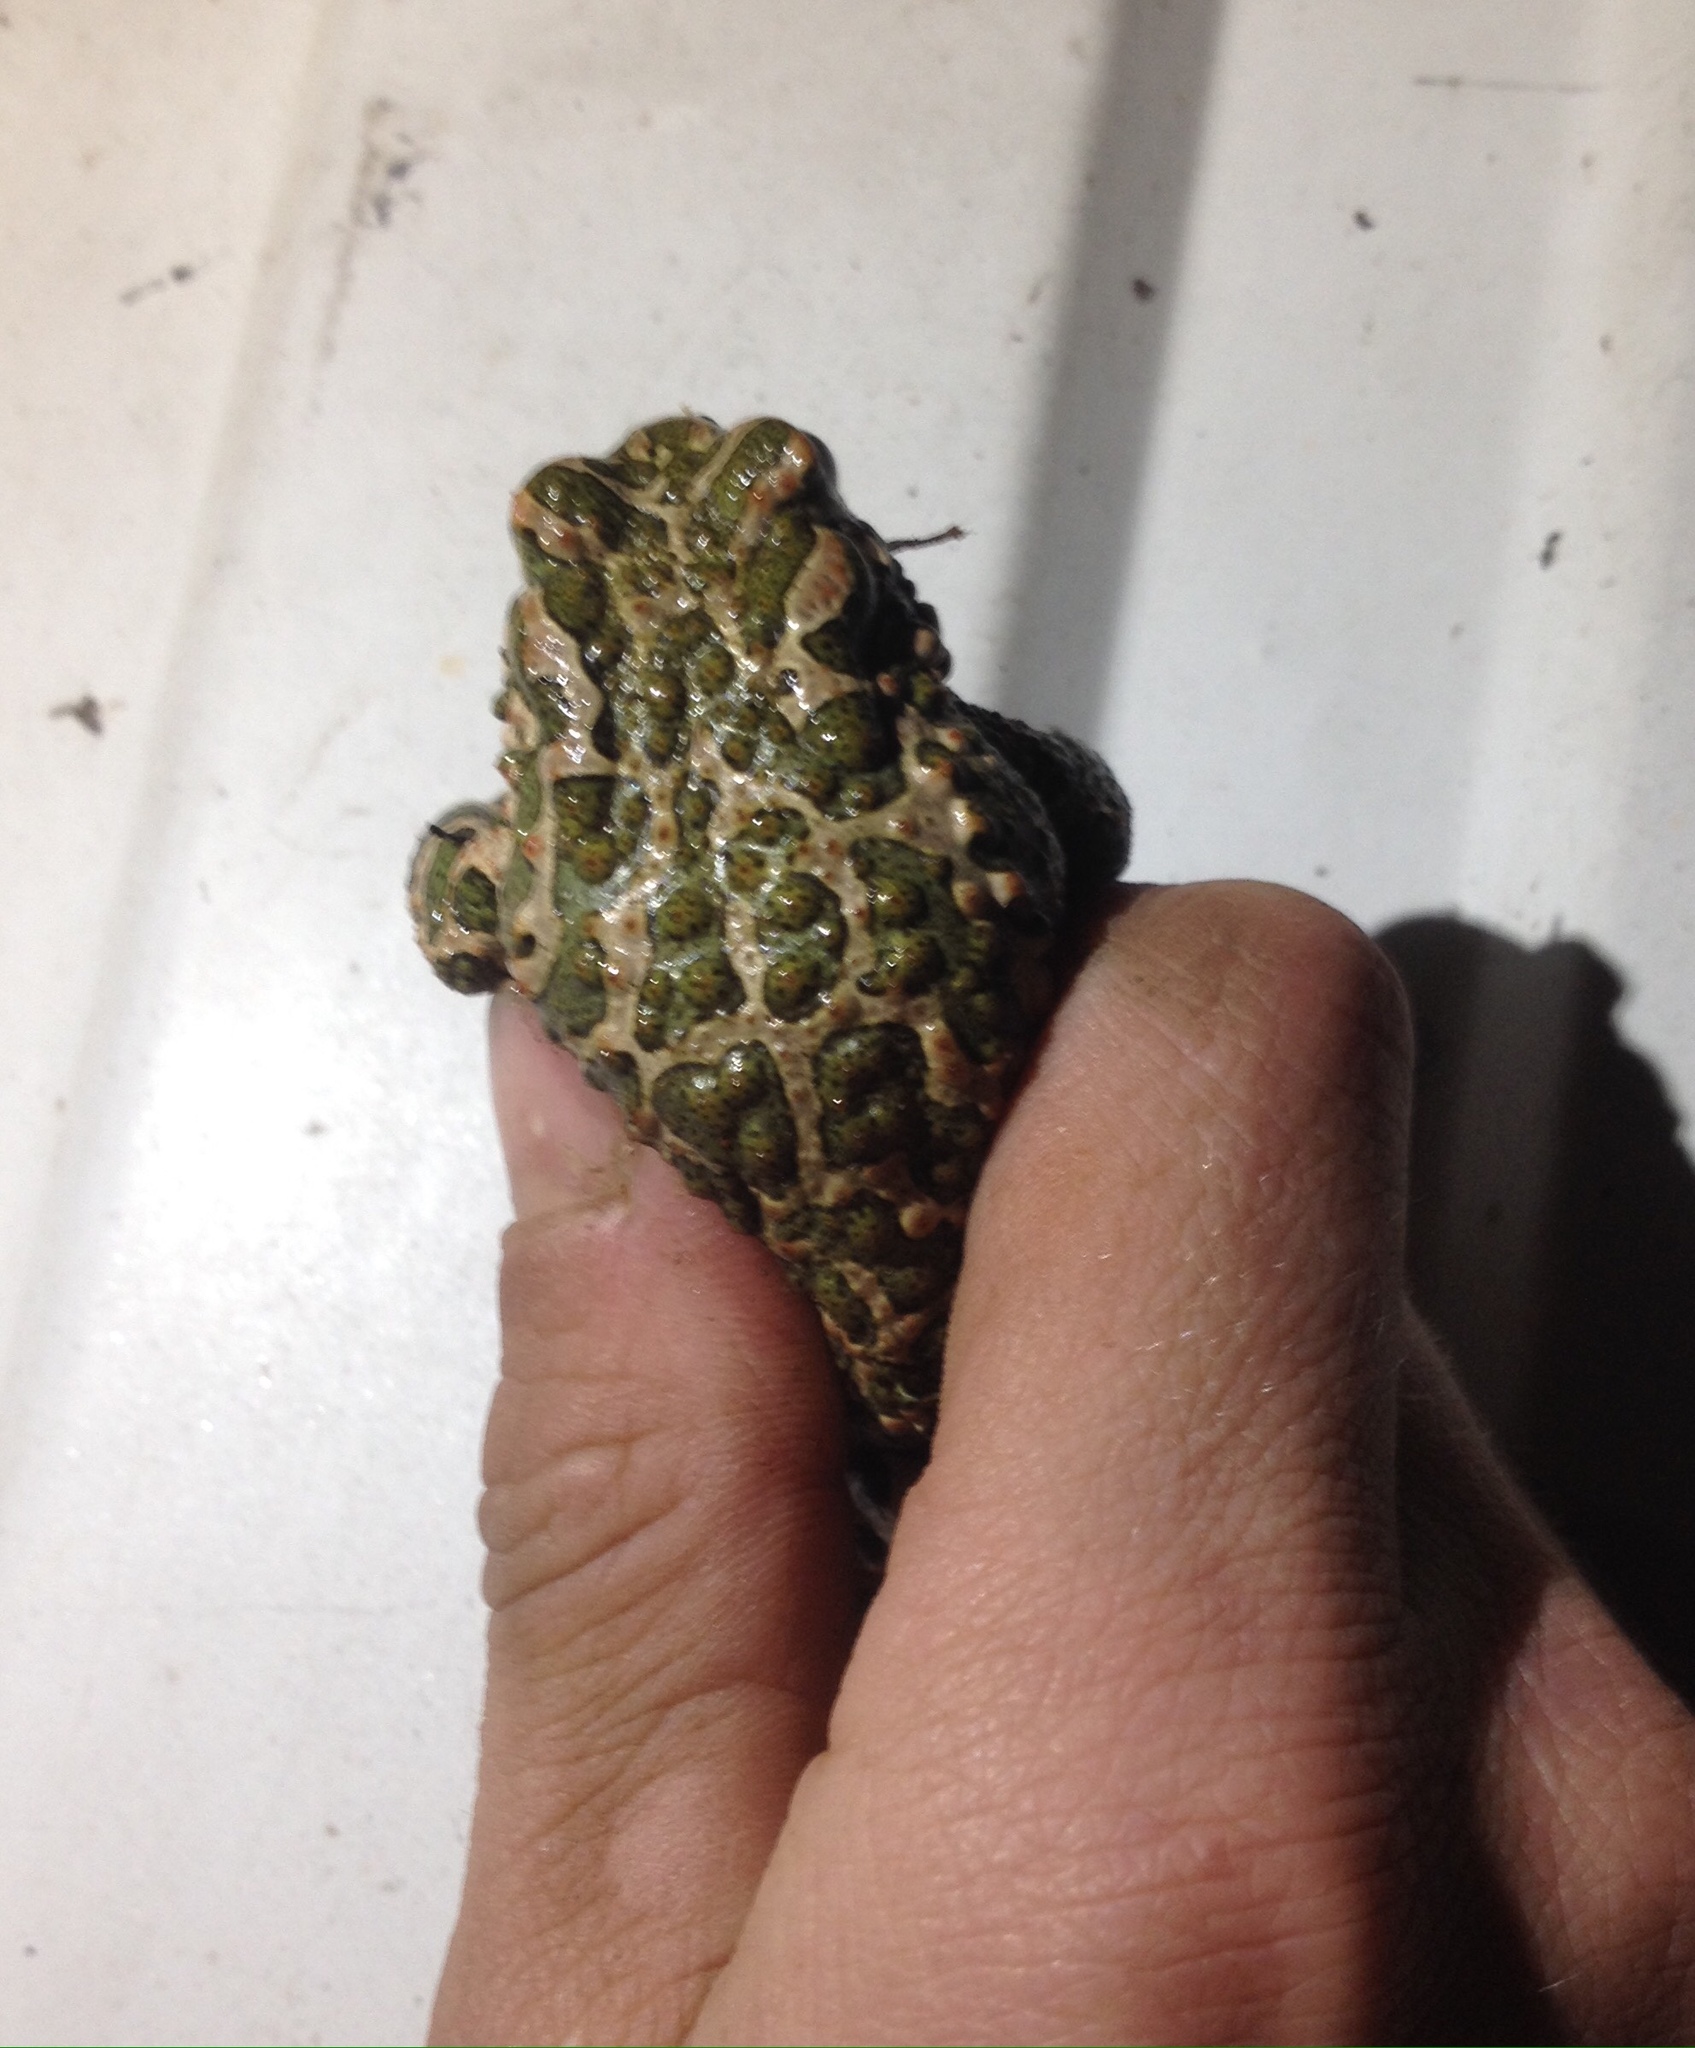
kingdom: Animalia
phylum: Chordata
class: Amphibia
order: Anura
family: Bufonidae
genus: Bufotes
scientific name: Bufotes viridis
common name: European green toad
